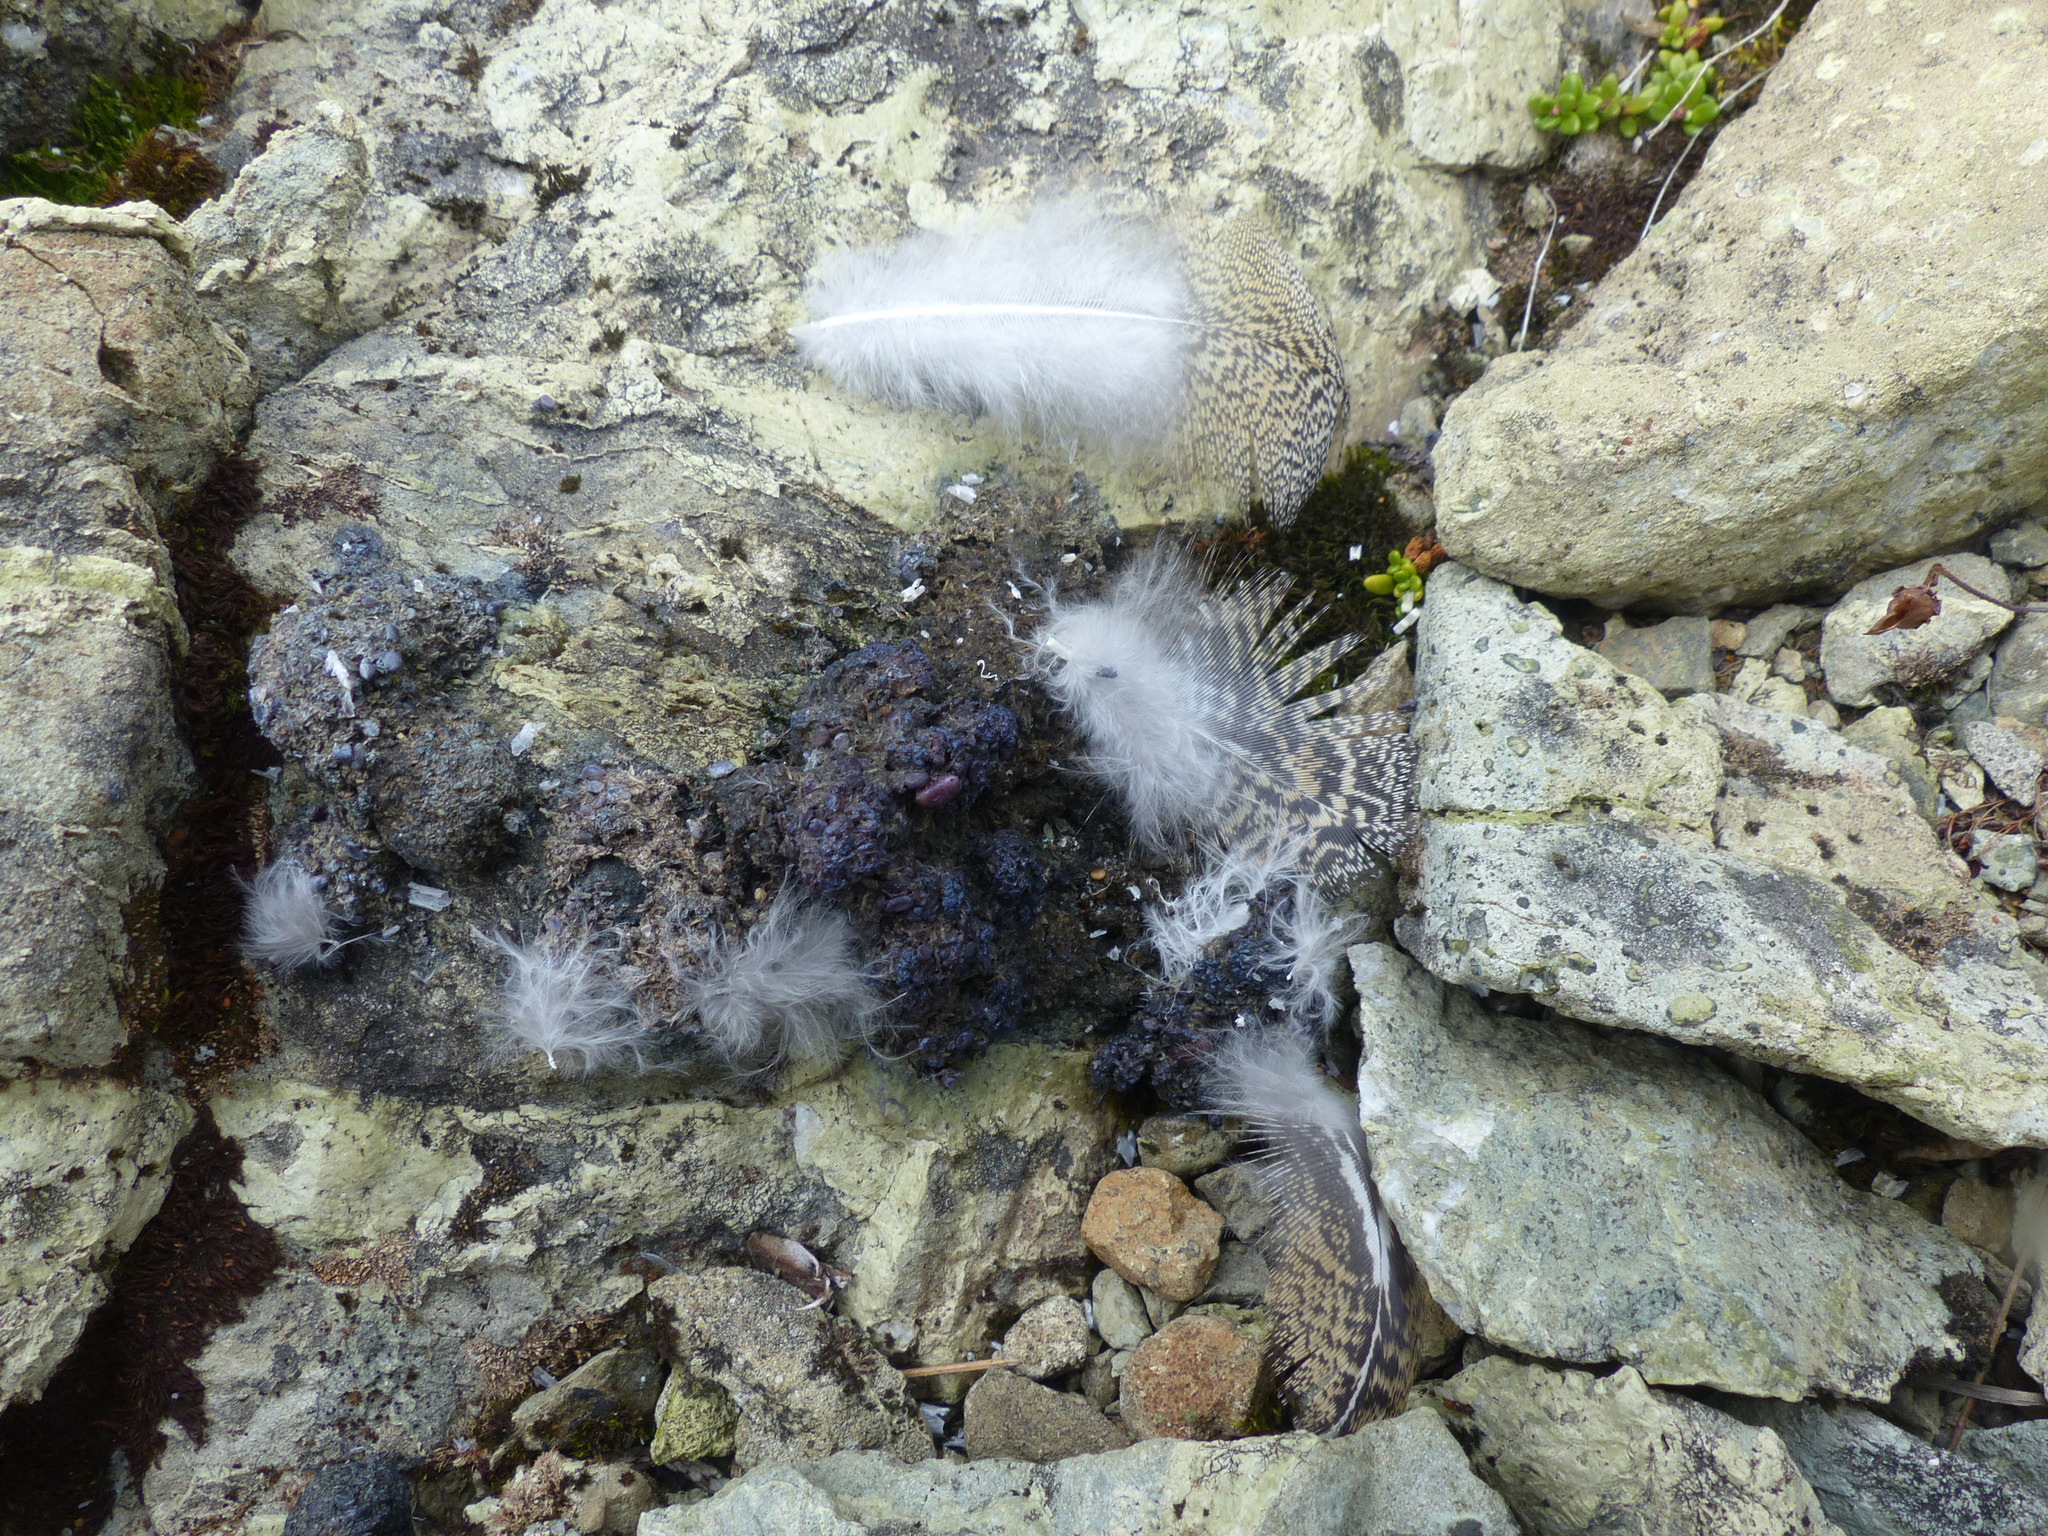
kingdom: Animalia
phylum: Chordata
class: Aves
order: Galliformes
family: Phasianidae
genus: Lagopus
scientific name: Lagopus leucura
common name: White-tailed ptarmigan
